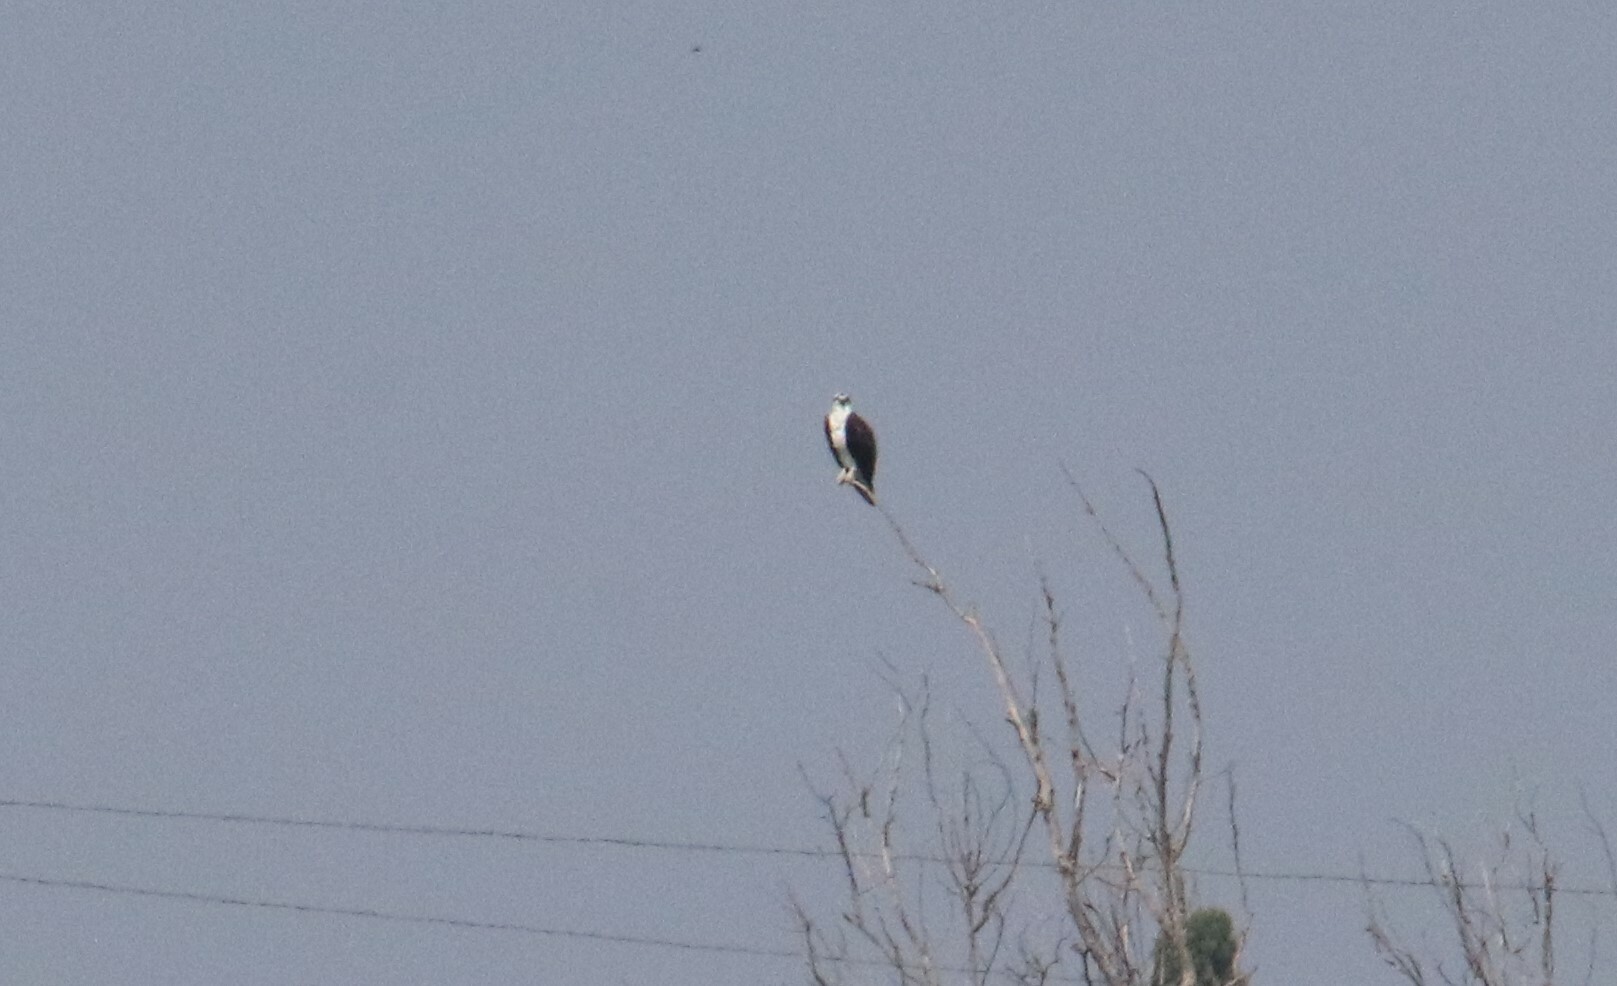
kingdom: Animalia
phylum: Chordata
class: Aves
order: Accipitriformes
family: Pandionidae
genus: Pandion
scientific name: Pandion haliaetus
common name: Osprey
